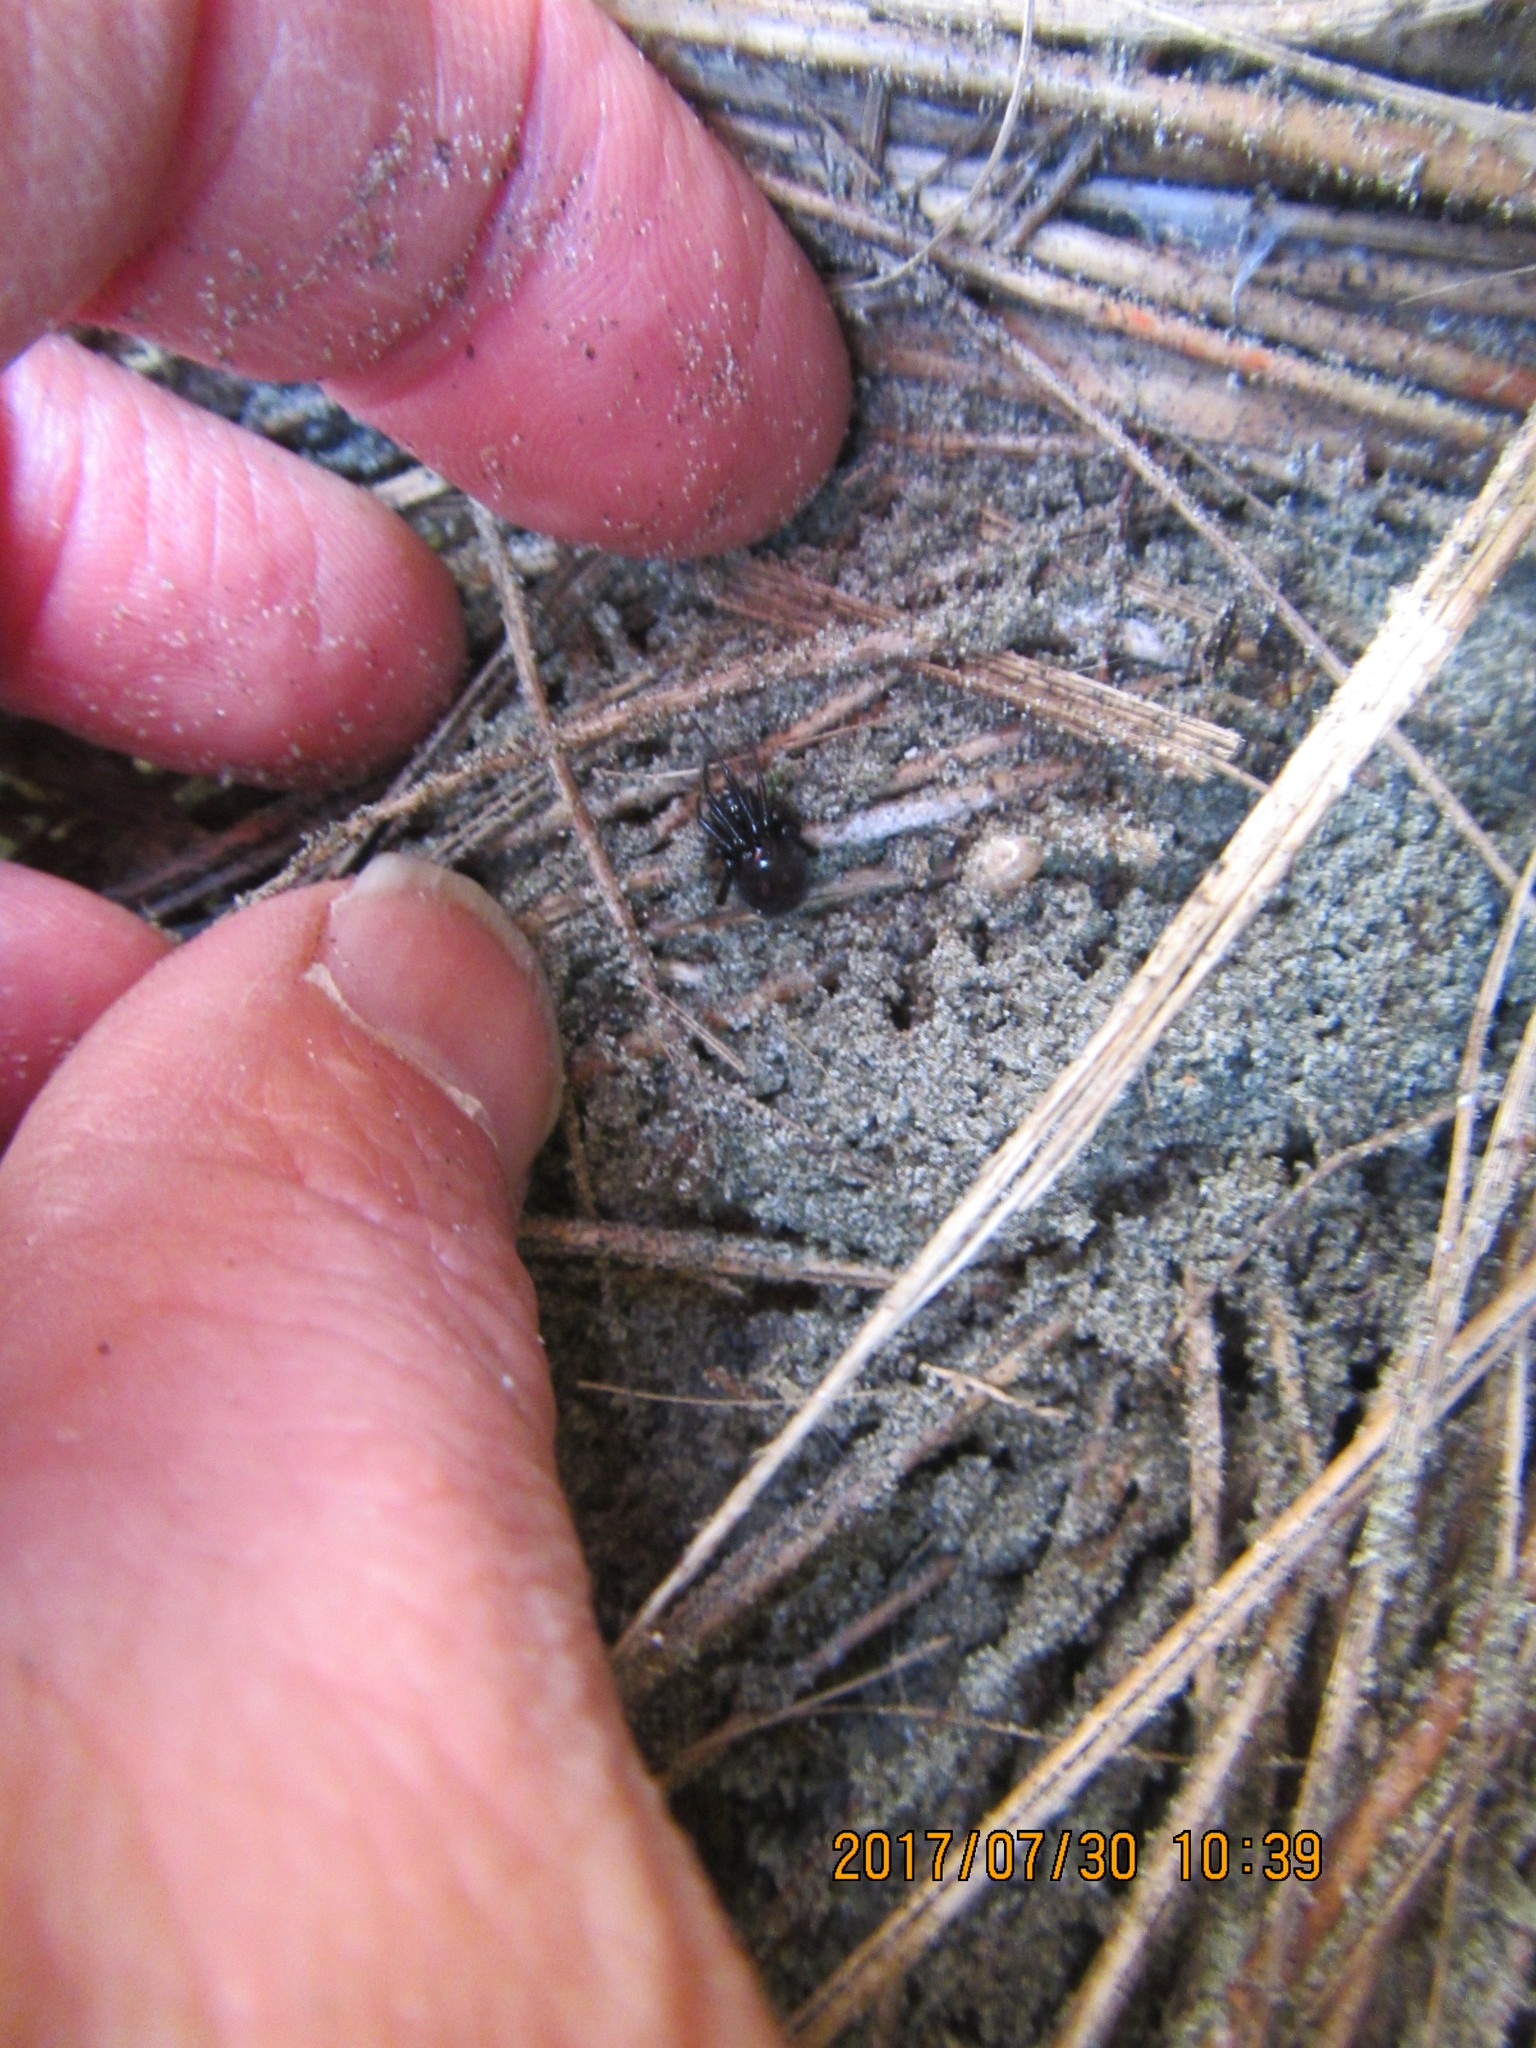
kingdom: Animalia
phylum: Arthropoda
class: Arachnida
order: Araneae
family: Theridiidae
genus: Steatoda
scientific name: Steatoda capensis
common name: Cobweb weaver
